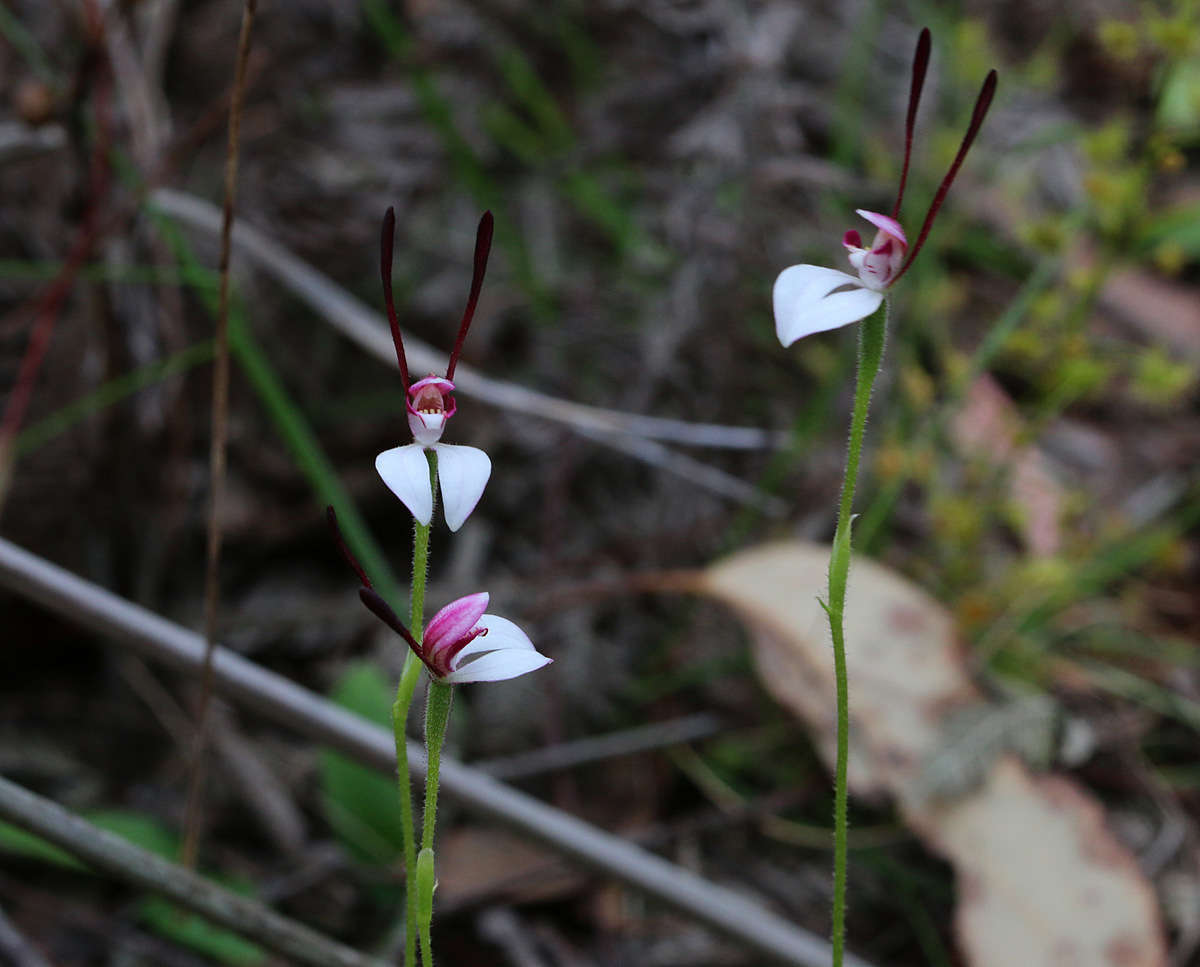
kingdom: Plantae
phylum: Tracheophyta
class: Liliopsida
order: Asparagales
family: Orchidaceae
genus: Leptoceras
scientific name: Leptoceras menziesii
